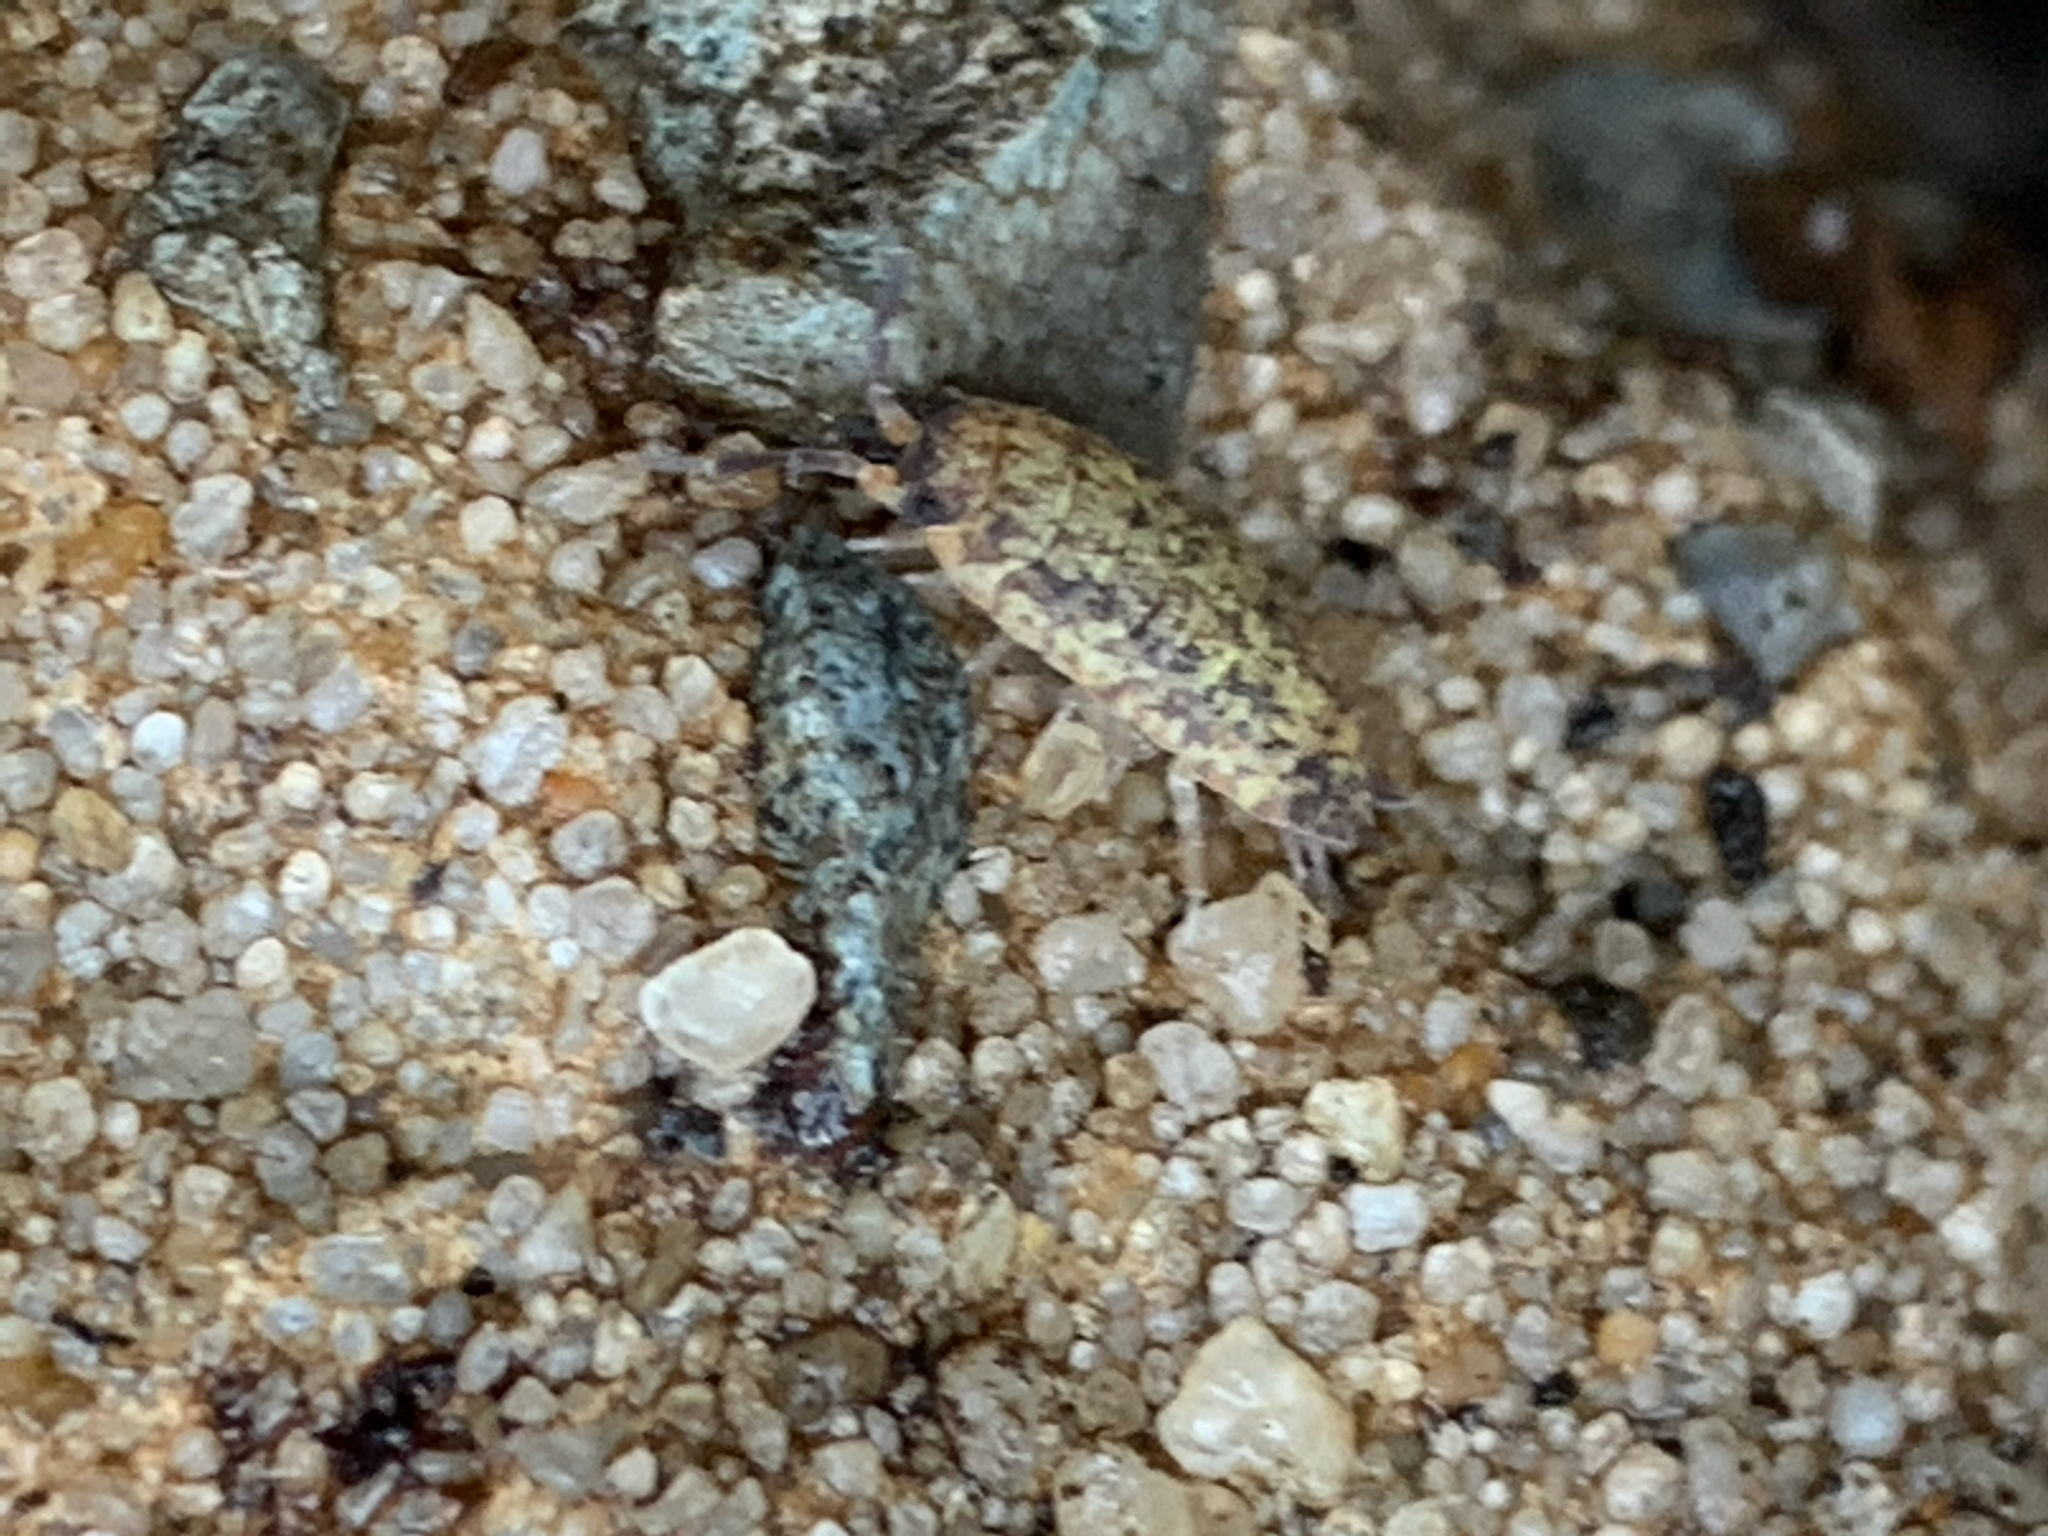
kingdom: Animalia
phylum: Arthropoda
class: Malacostraca
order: Isopoda
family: Porcellionidae
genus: Porcellio
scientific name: Porcellio scaber
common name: Common rough woodlouse
